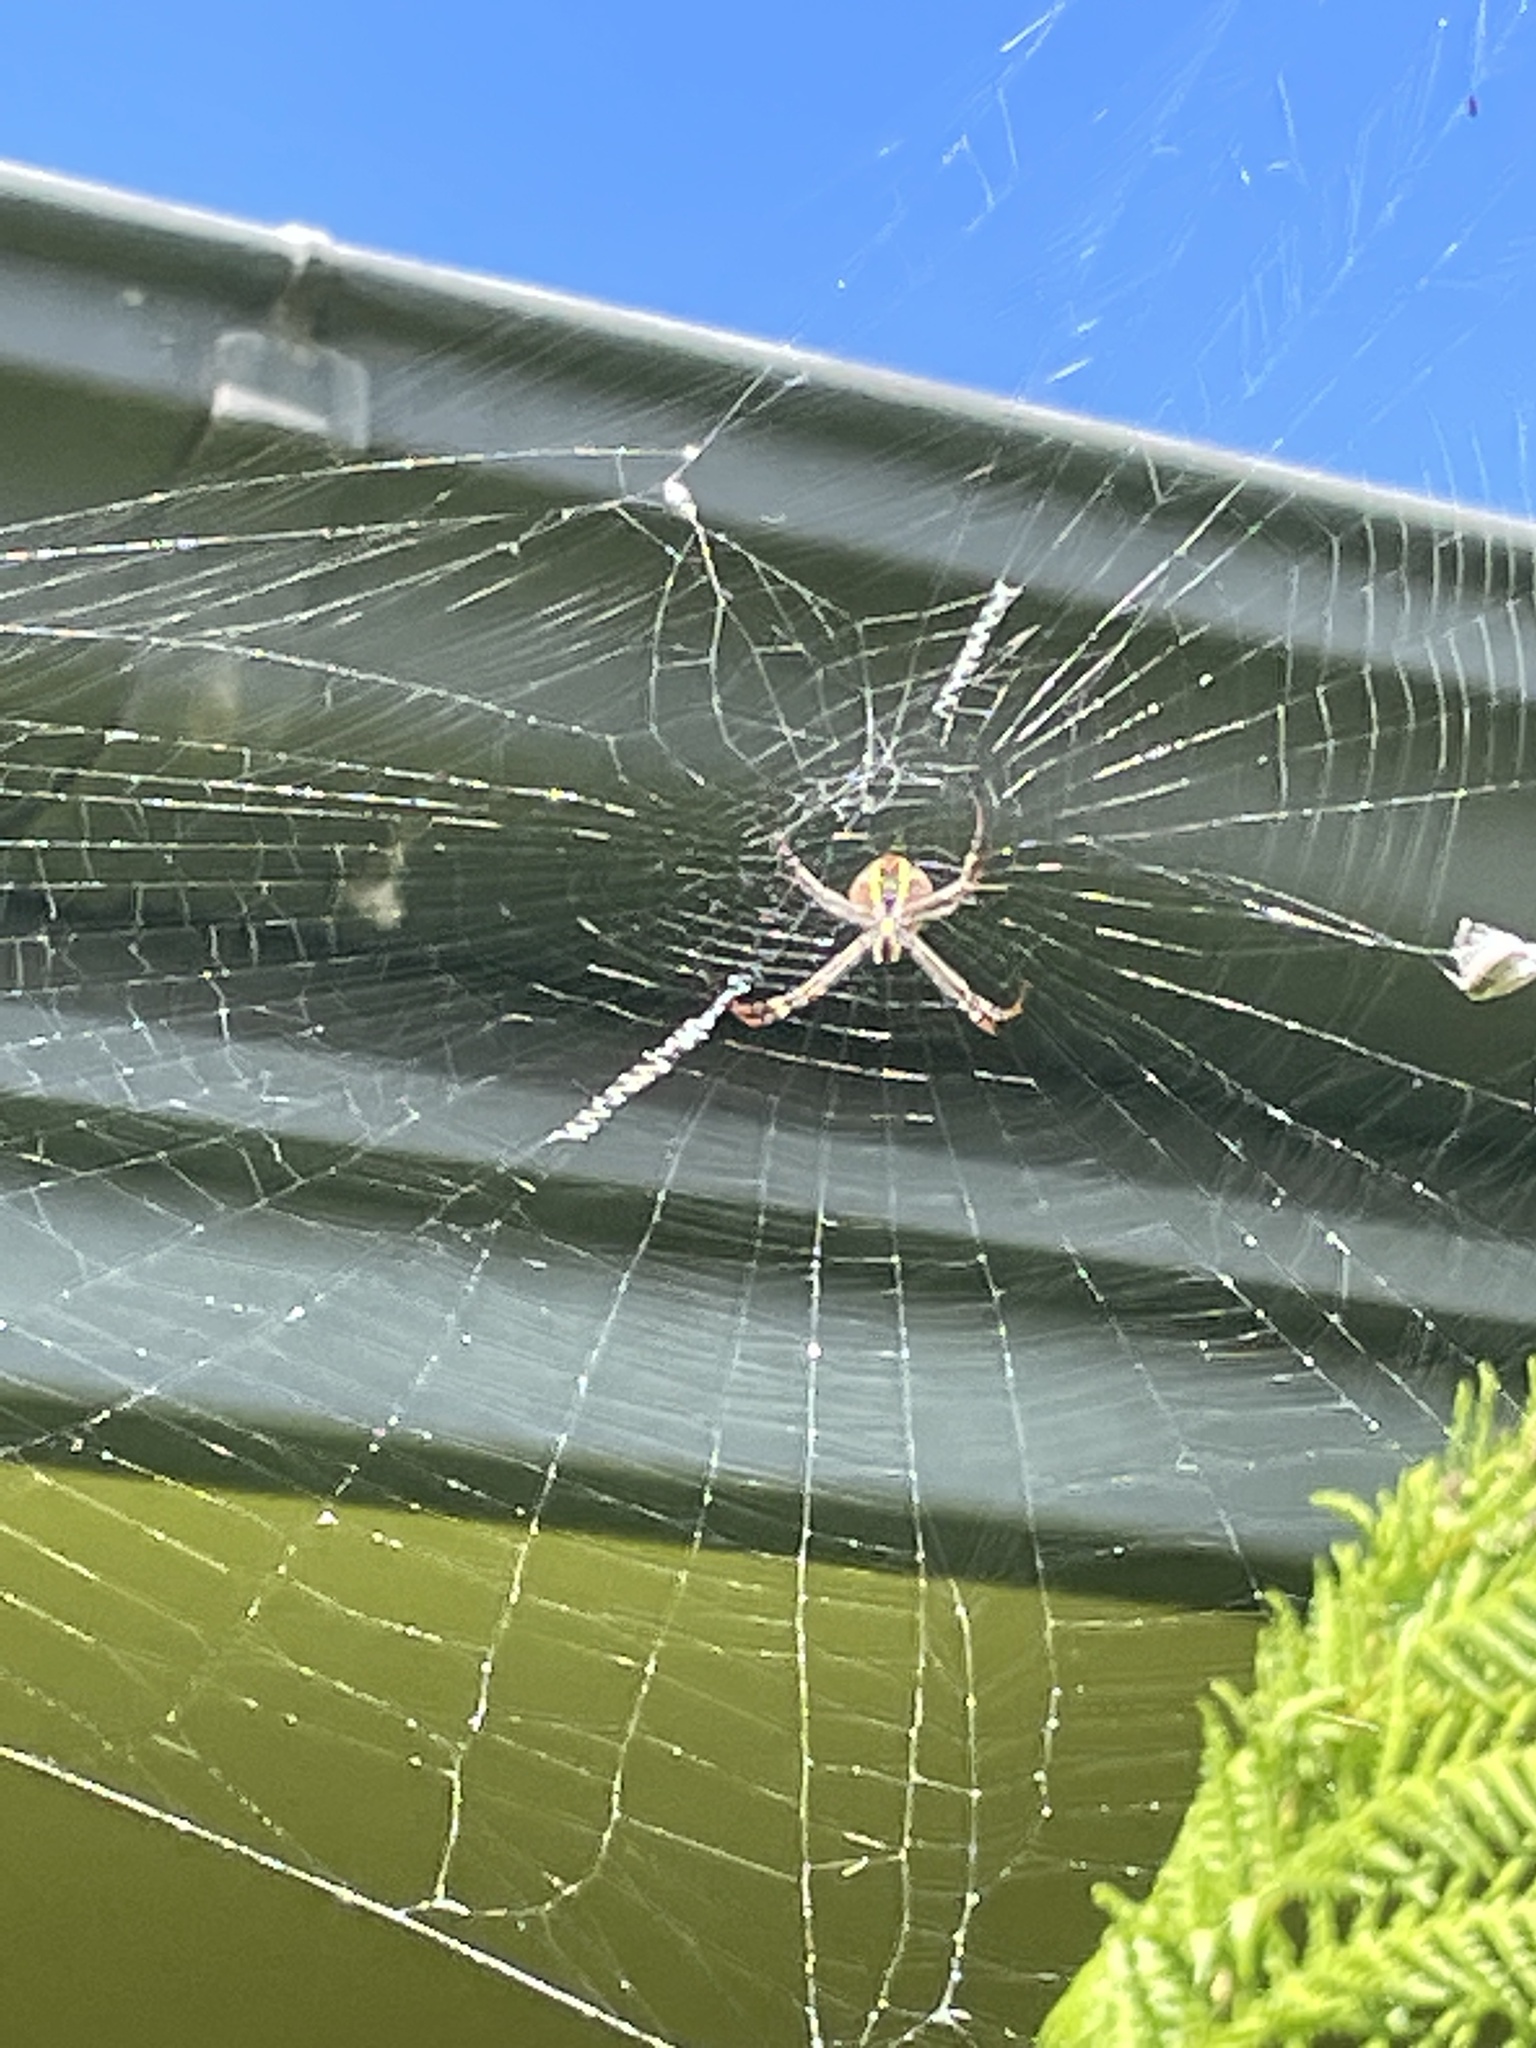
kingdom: Animalia
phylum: Arthropoda
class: Arachnida
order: Araneae
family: Araneidae
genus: Argiope
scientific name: Argiope keyserlingi
